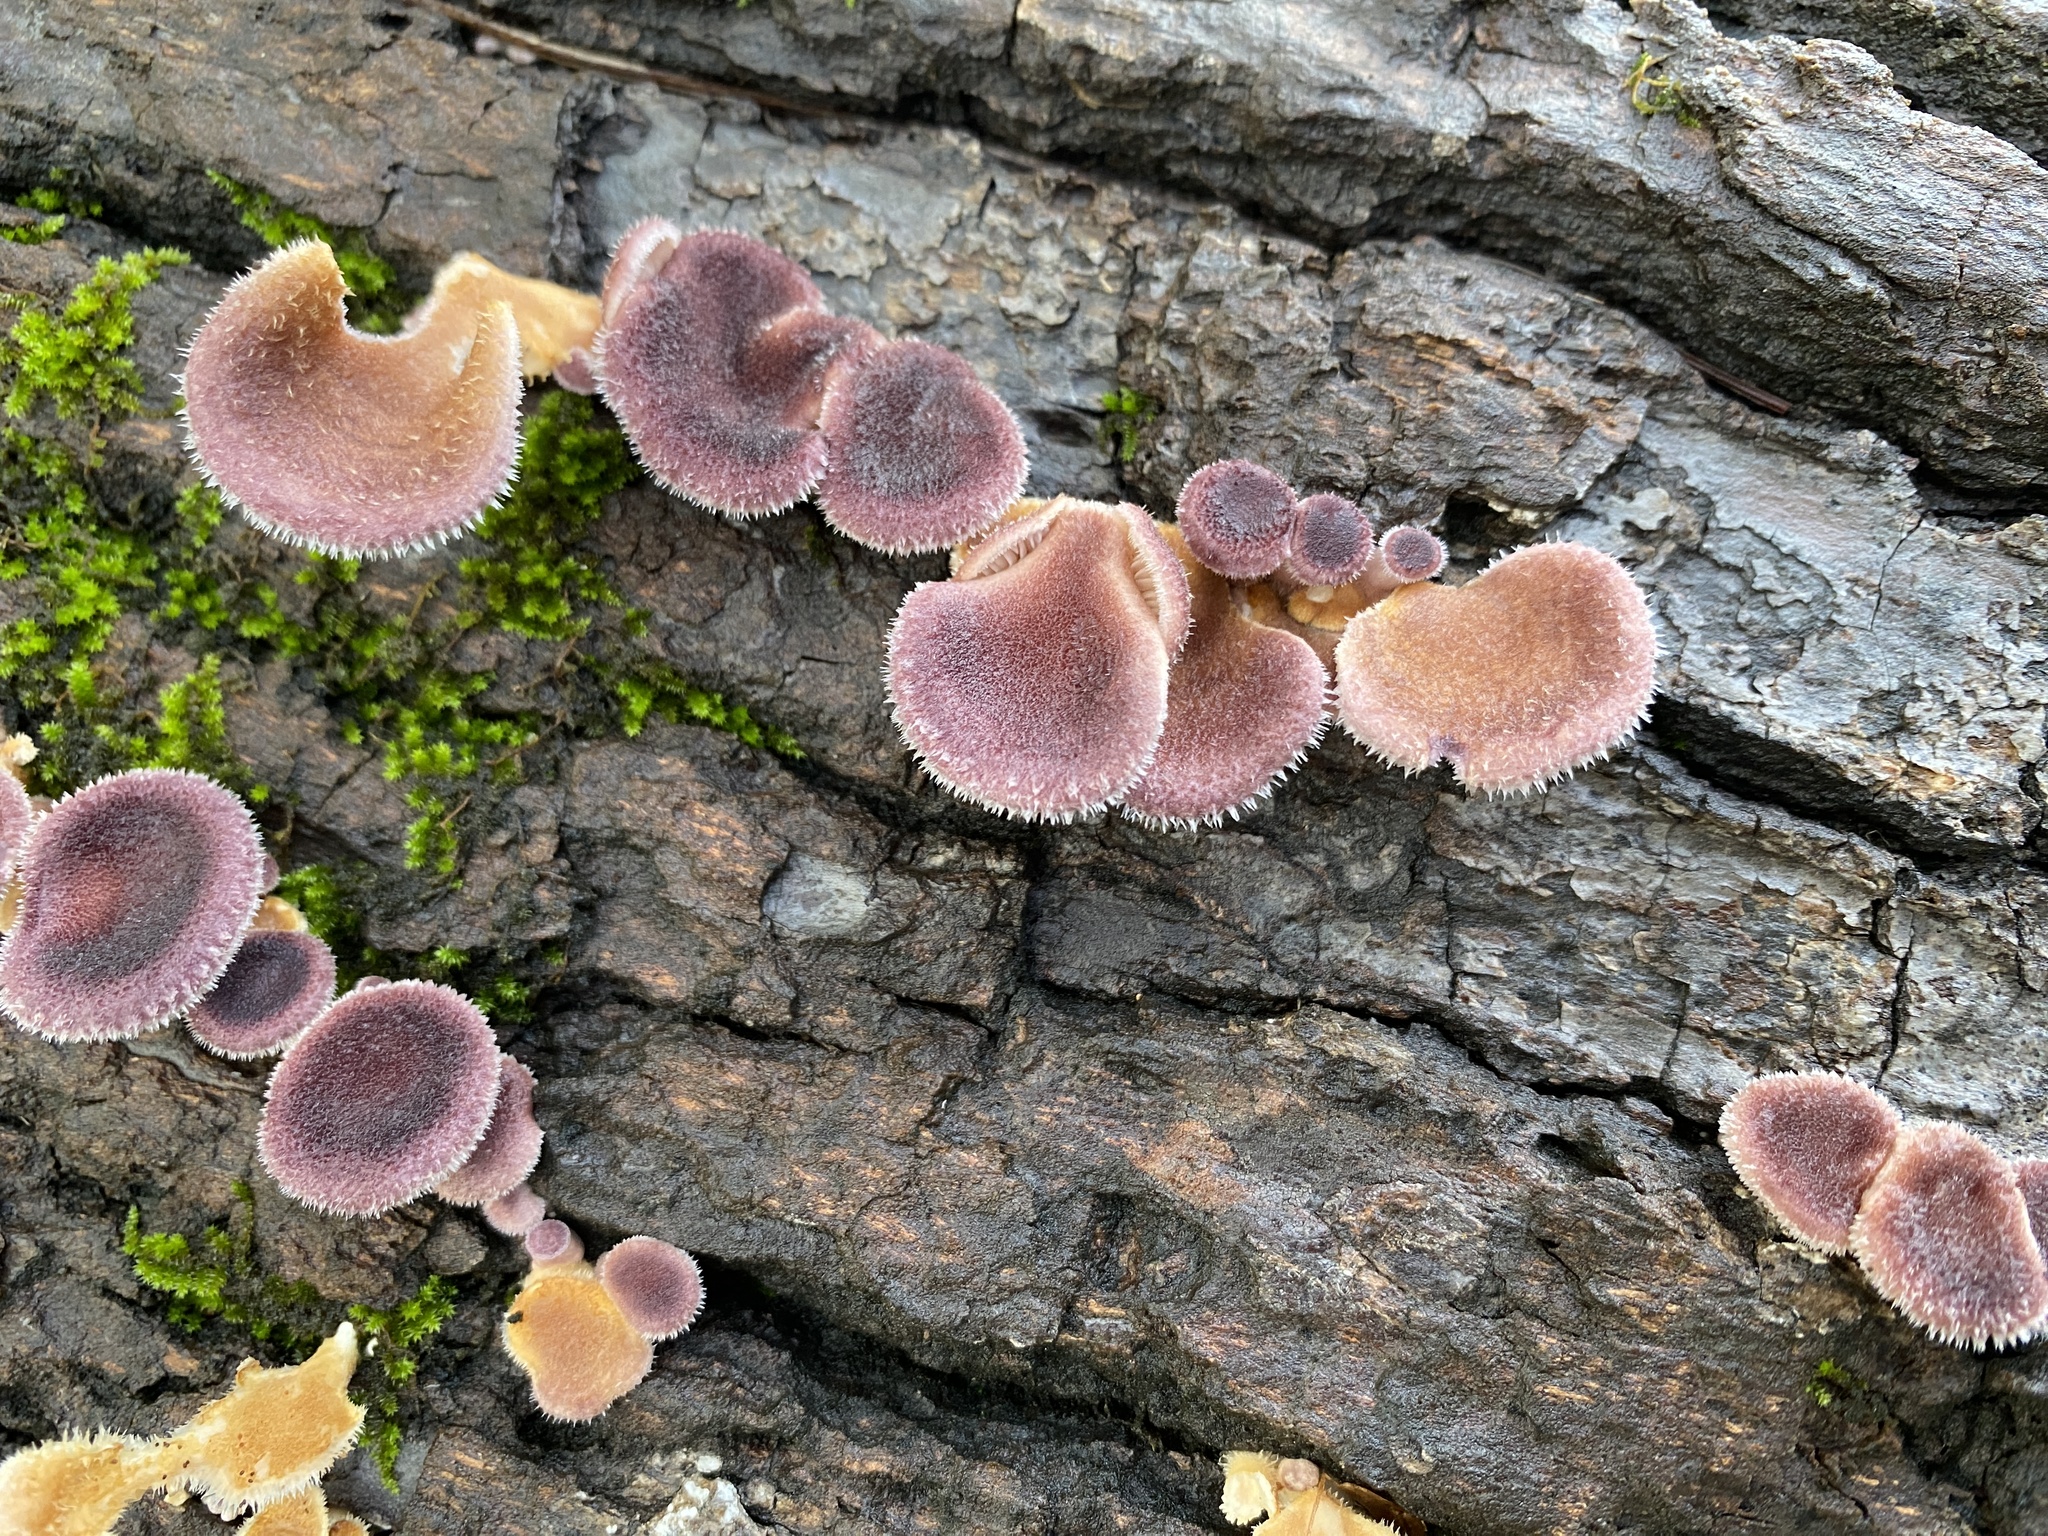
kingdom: Fungi
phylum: Basidiomycota
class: Agaricomycetes
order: Polyporales
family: Panaceae
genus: Panus
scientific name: Panus neostrigosus
